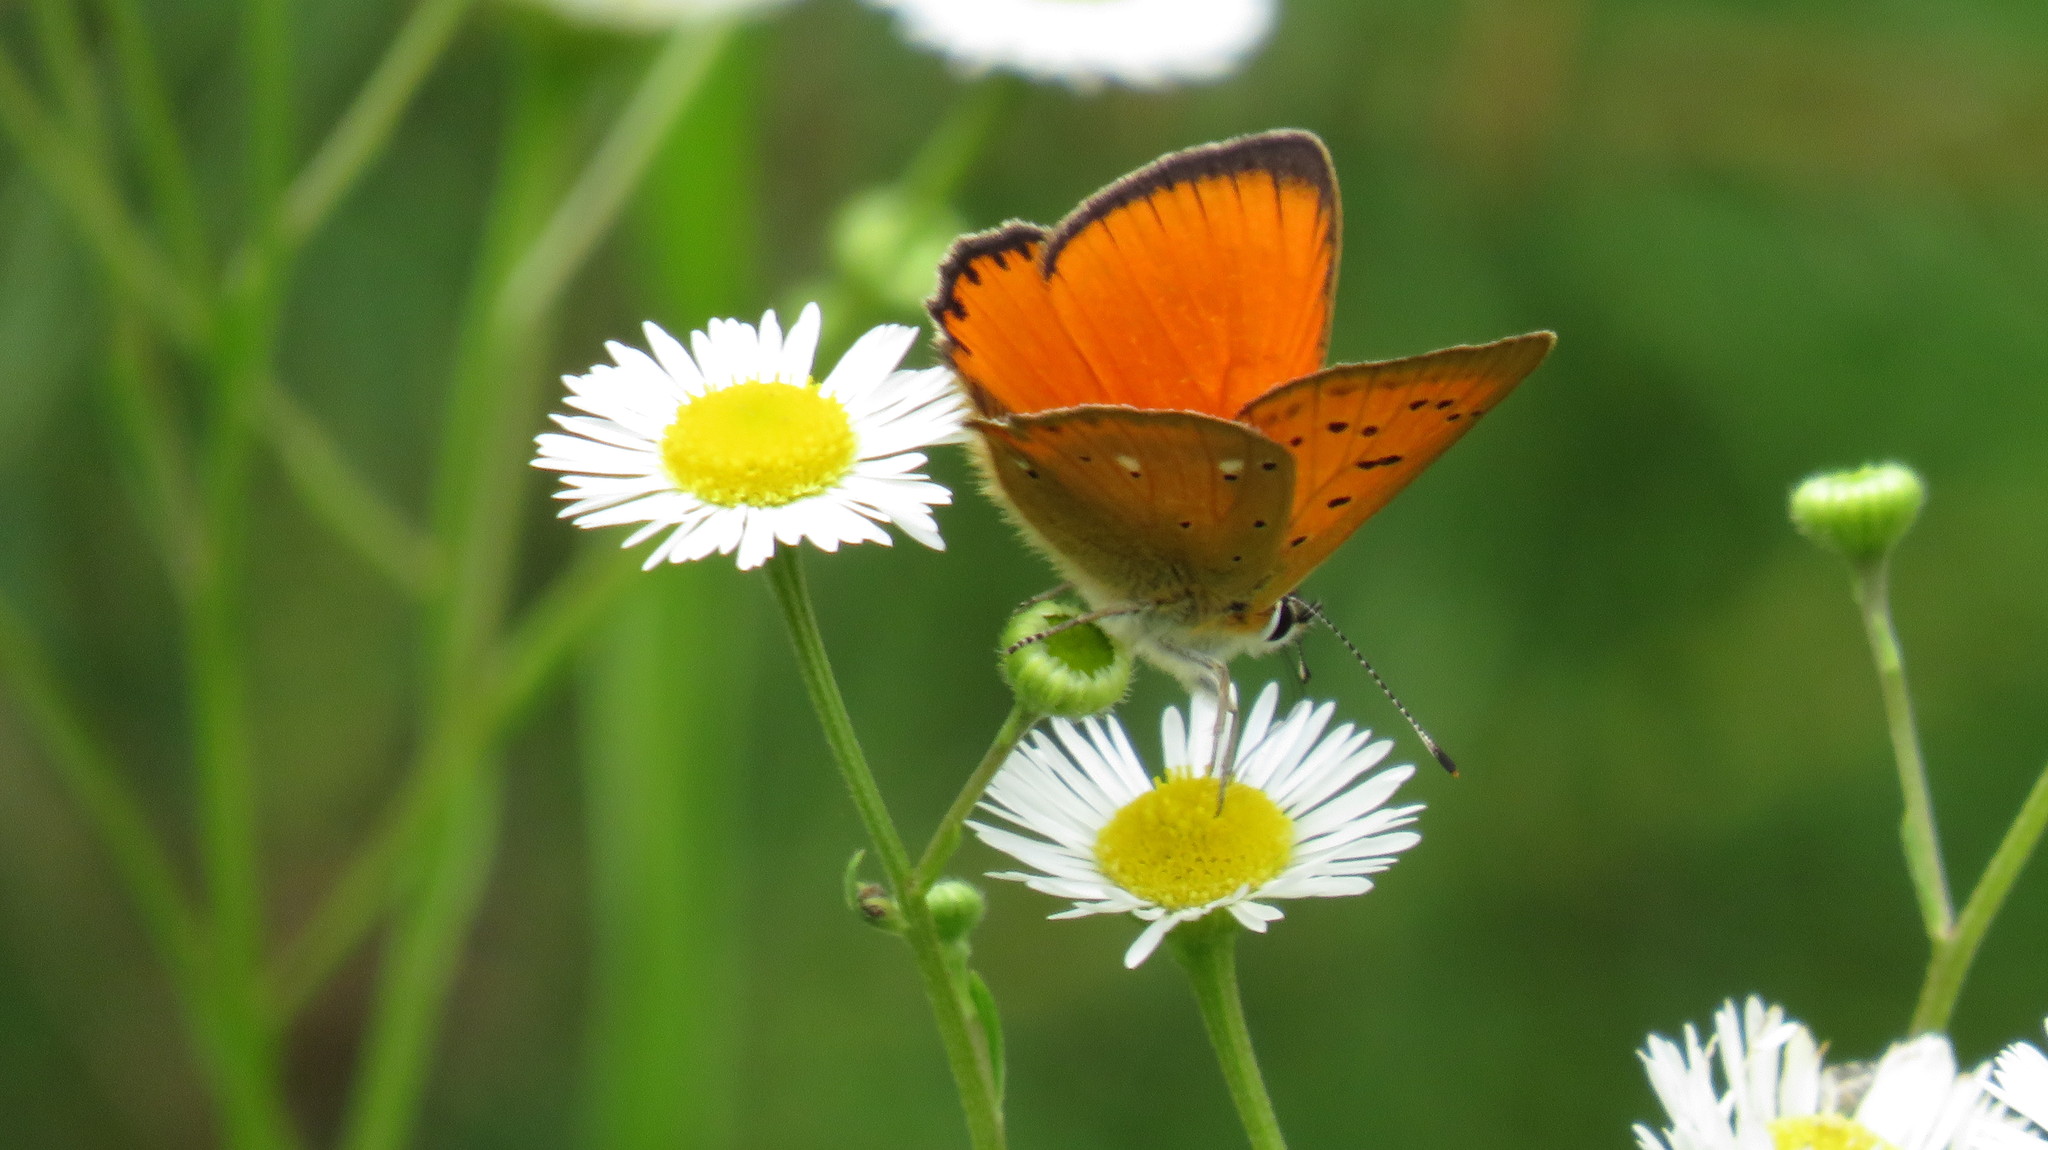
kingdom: Animalia
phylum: Arthropoda
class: Insecta
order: Lepidoptera
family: Lycaenidae
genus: Lycaena
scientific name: Lycaena virgaureae
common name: Scarce copper
